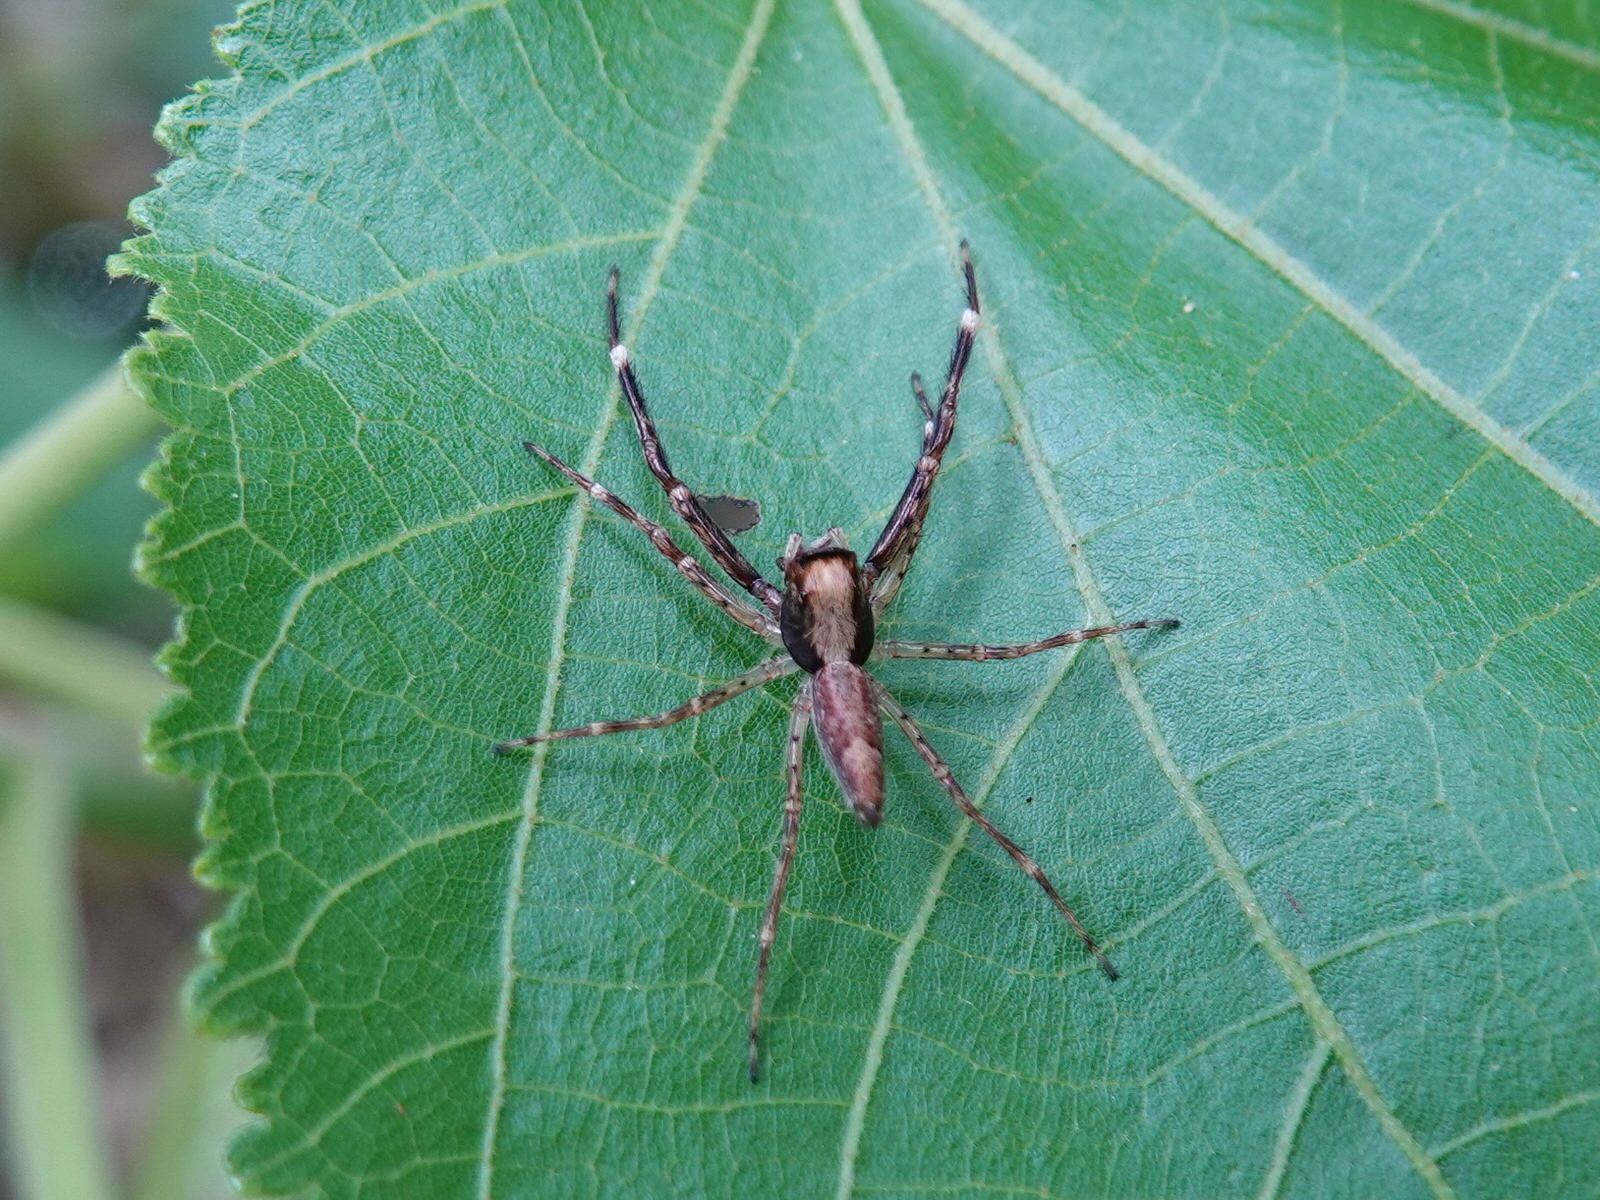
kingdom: Animalia
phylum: Arthropoda
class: Arachnida
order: Araneae
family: Salticidae
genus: Helpis
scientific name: Helpis minitabunda
